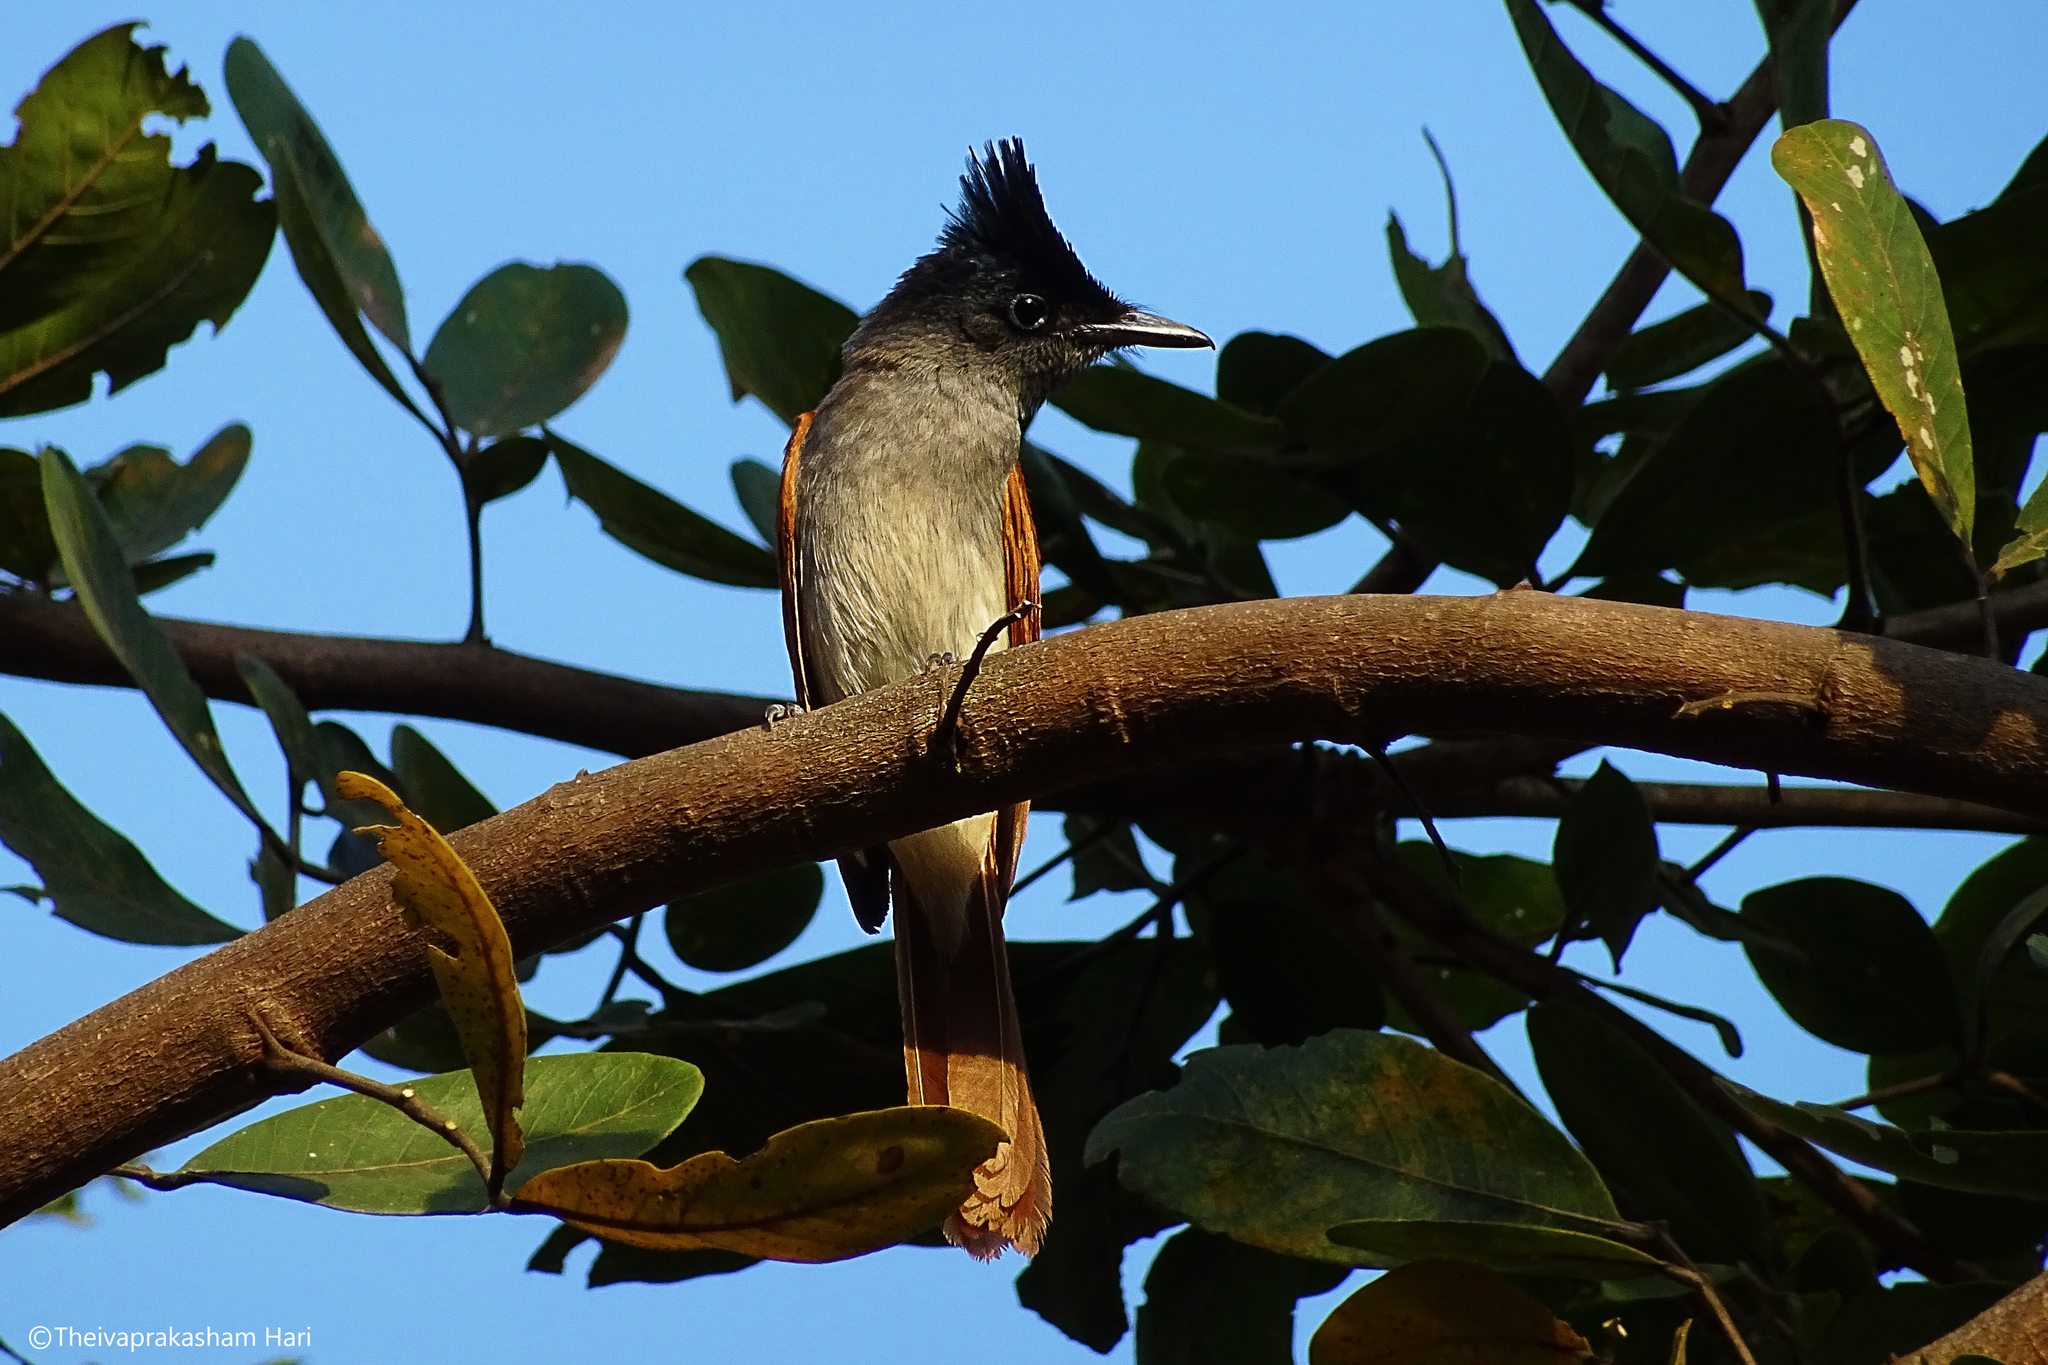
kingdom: Animalia
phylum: Chordata
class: Aves
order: Passeriformes
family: Monarchidae
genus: Terpsiphone
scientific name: Terpsiphone paradisi
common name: Indian paradise flycatcher
